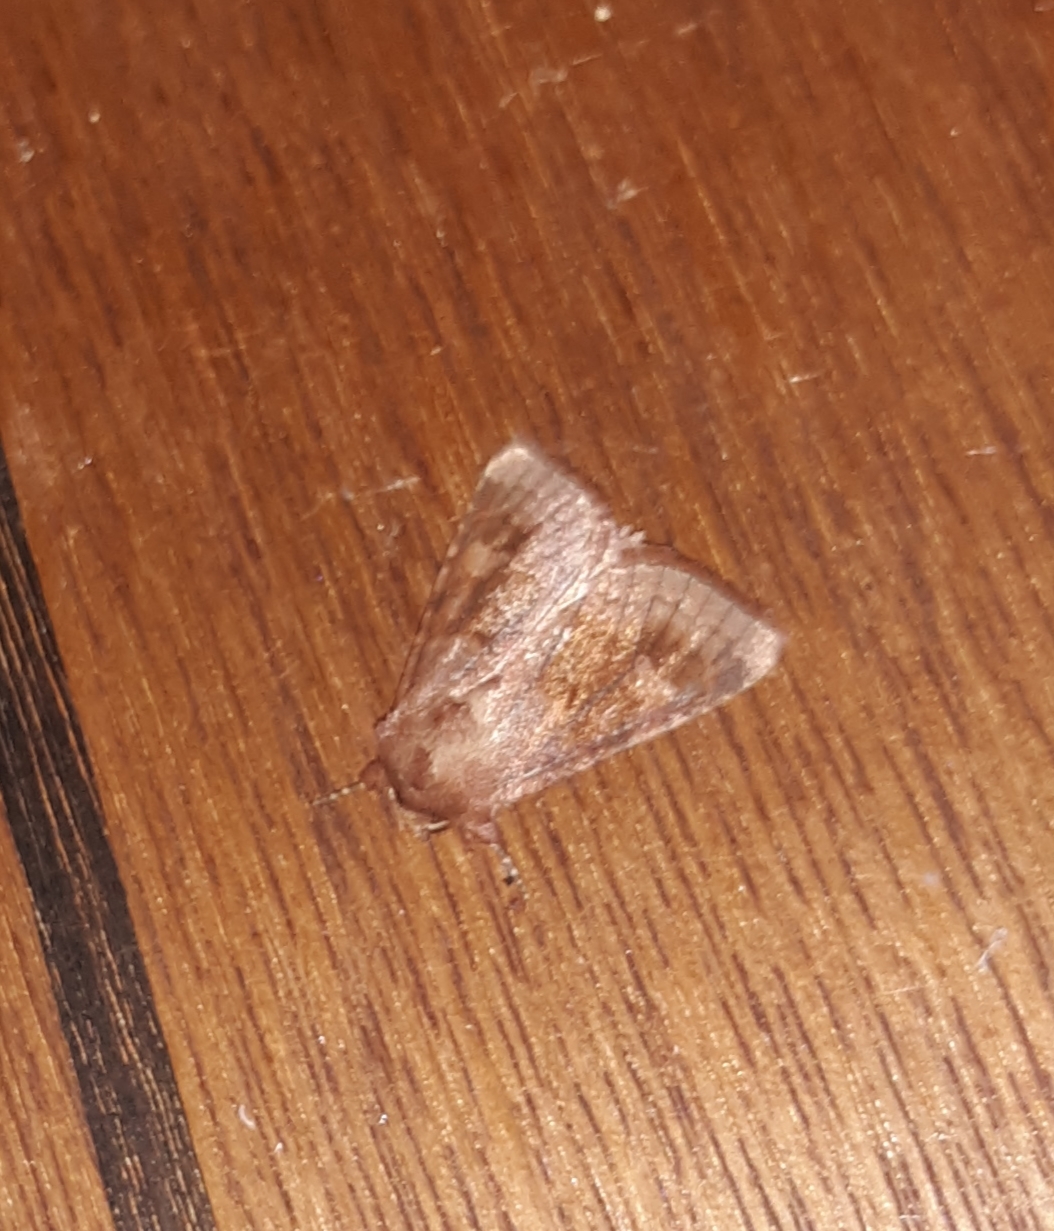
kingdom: Animalia
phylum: Arthropoda
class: Insecta
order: Lepidoptera
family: Noctuidae
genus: Nephelodes
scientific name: Nephelodes minians
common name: Bronzed cutworm
